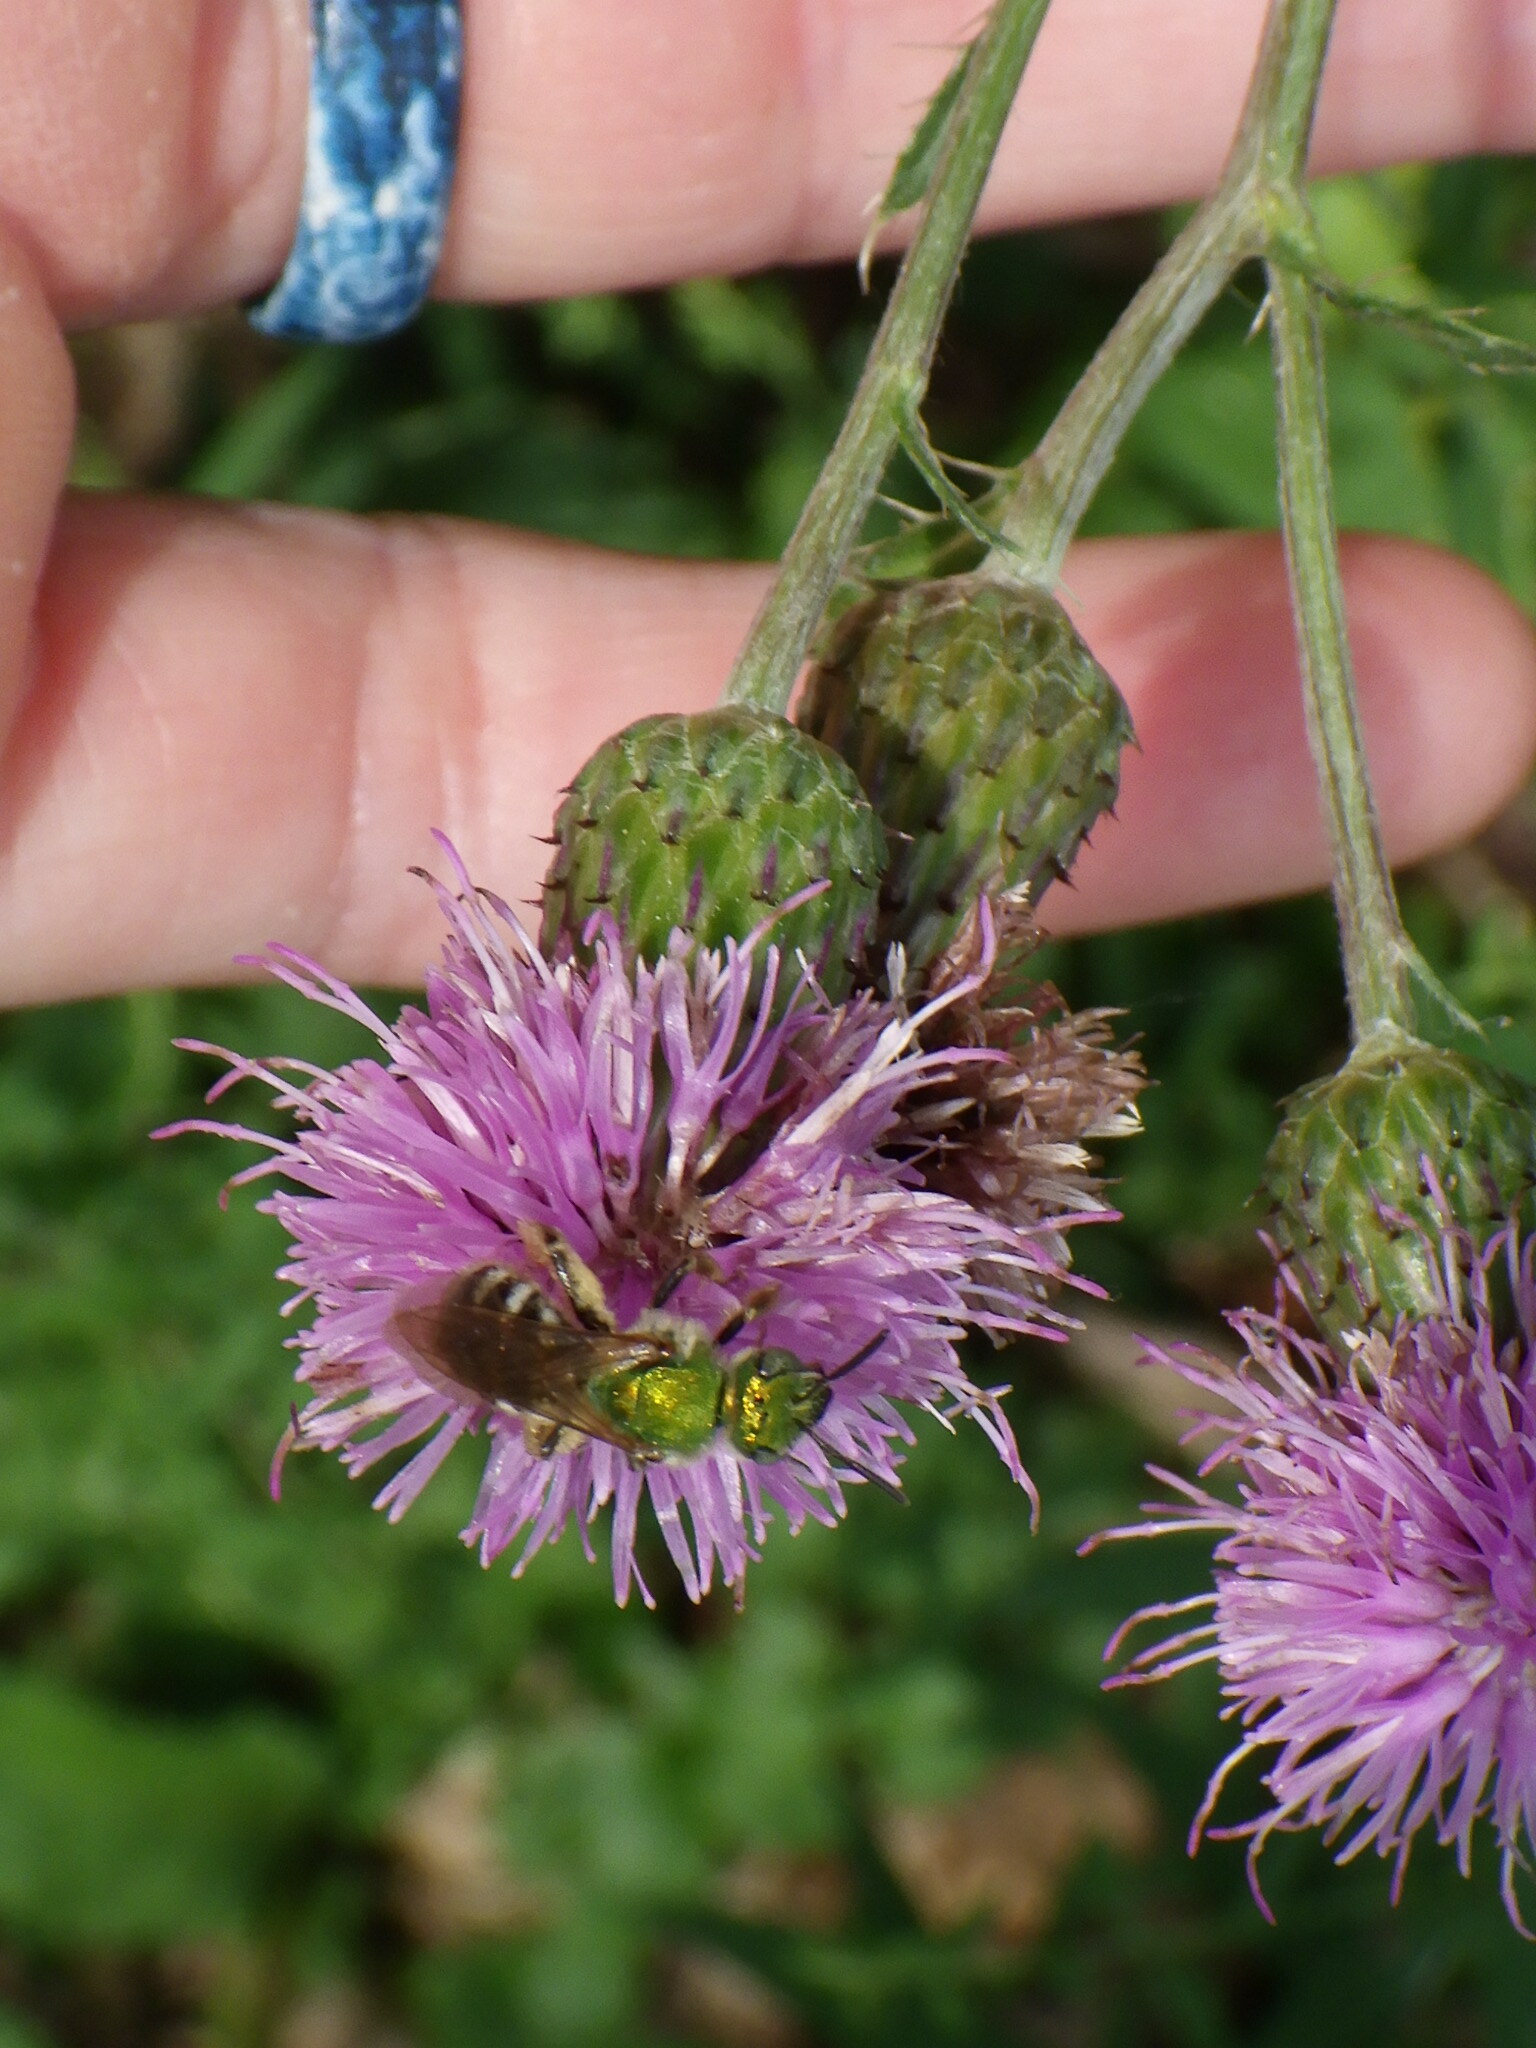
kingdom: Animalia
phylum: Arthropoda
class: Insecta
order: Hymenoptera
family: Halictidae
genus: Agapostemon
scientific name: Agapostemon virescens
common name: Bicolored striped sweat bee
